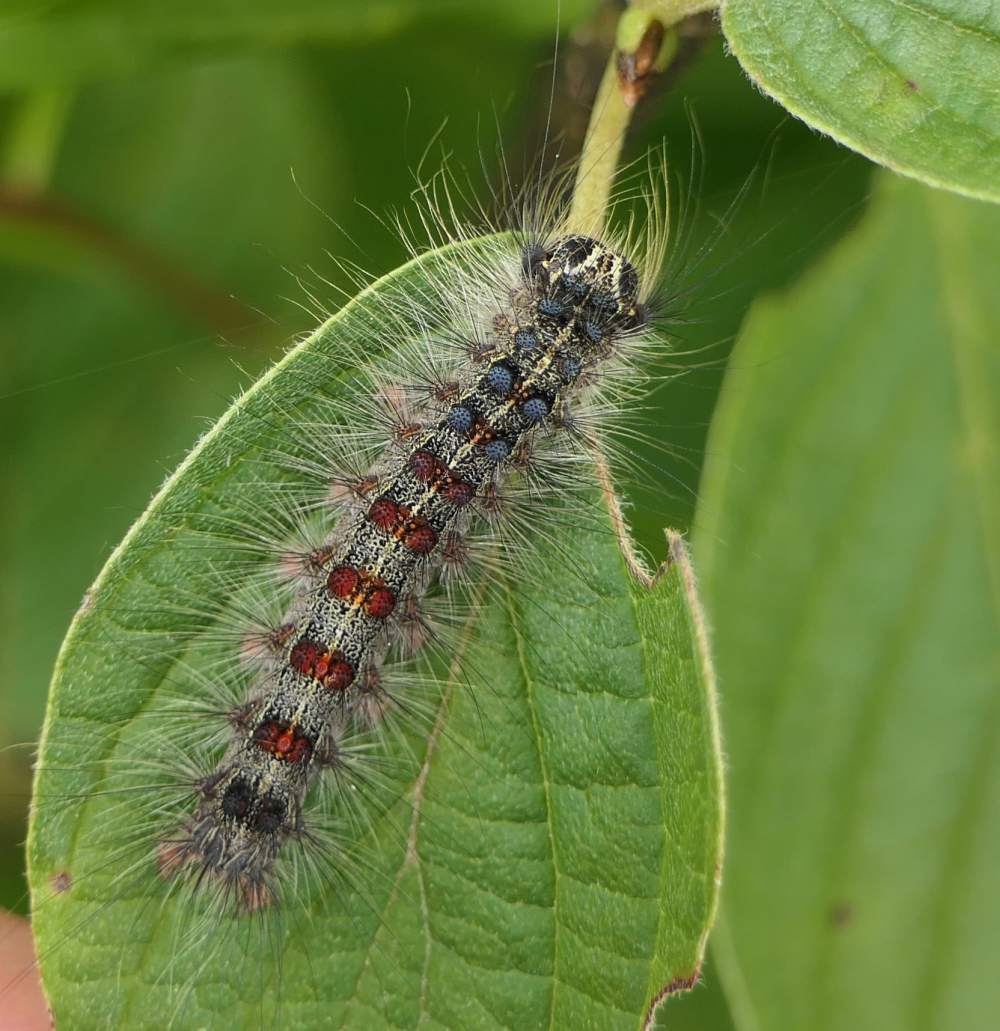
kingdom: Animalia
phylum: Arthropoda
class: Insecta
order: Lepidoptera
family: Erebidae
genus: Lymantria
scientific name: Lymantria dispar
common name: Gypsy moth
